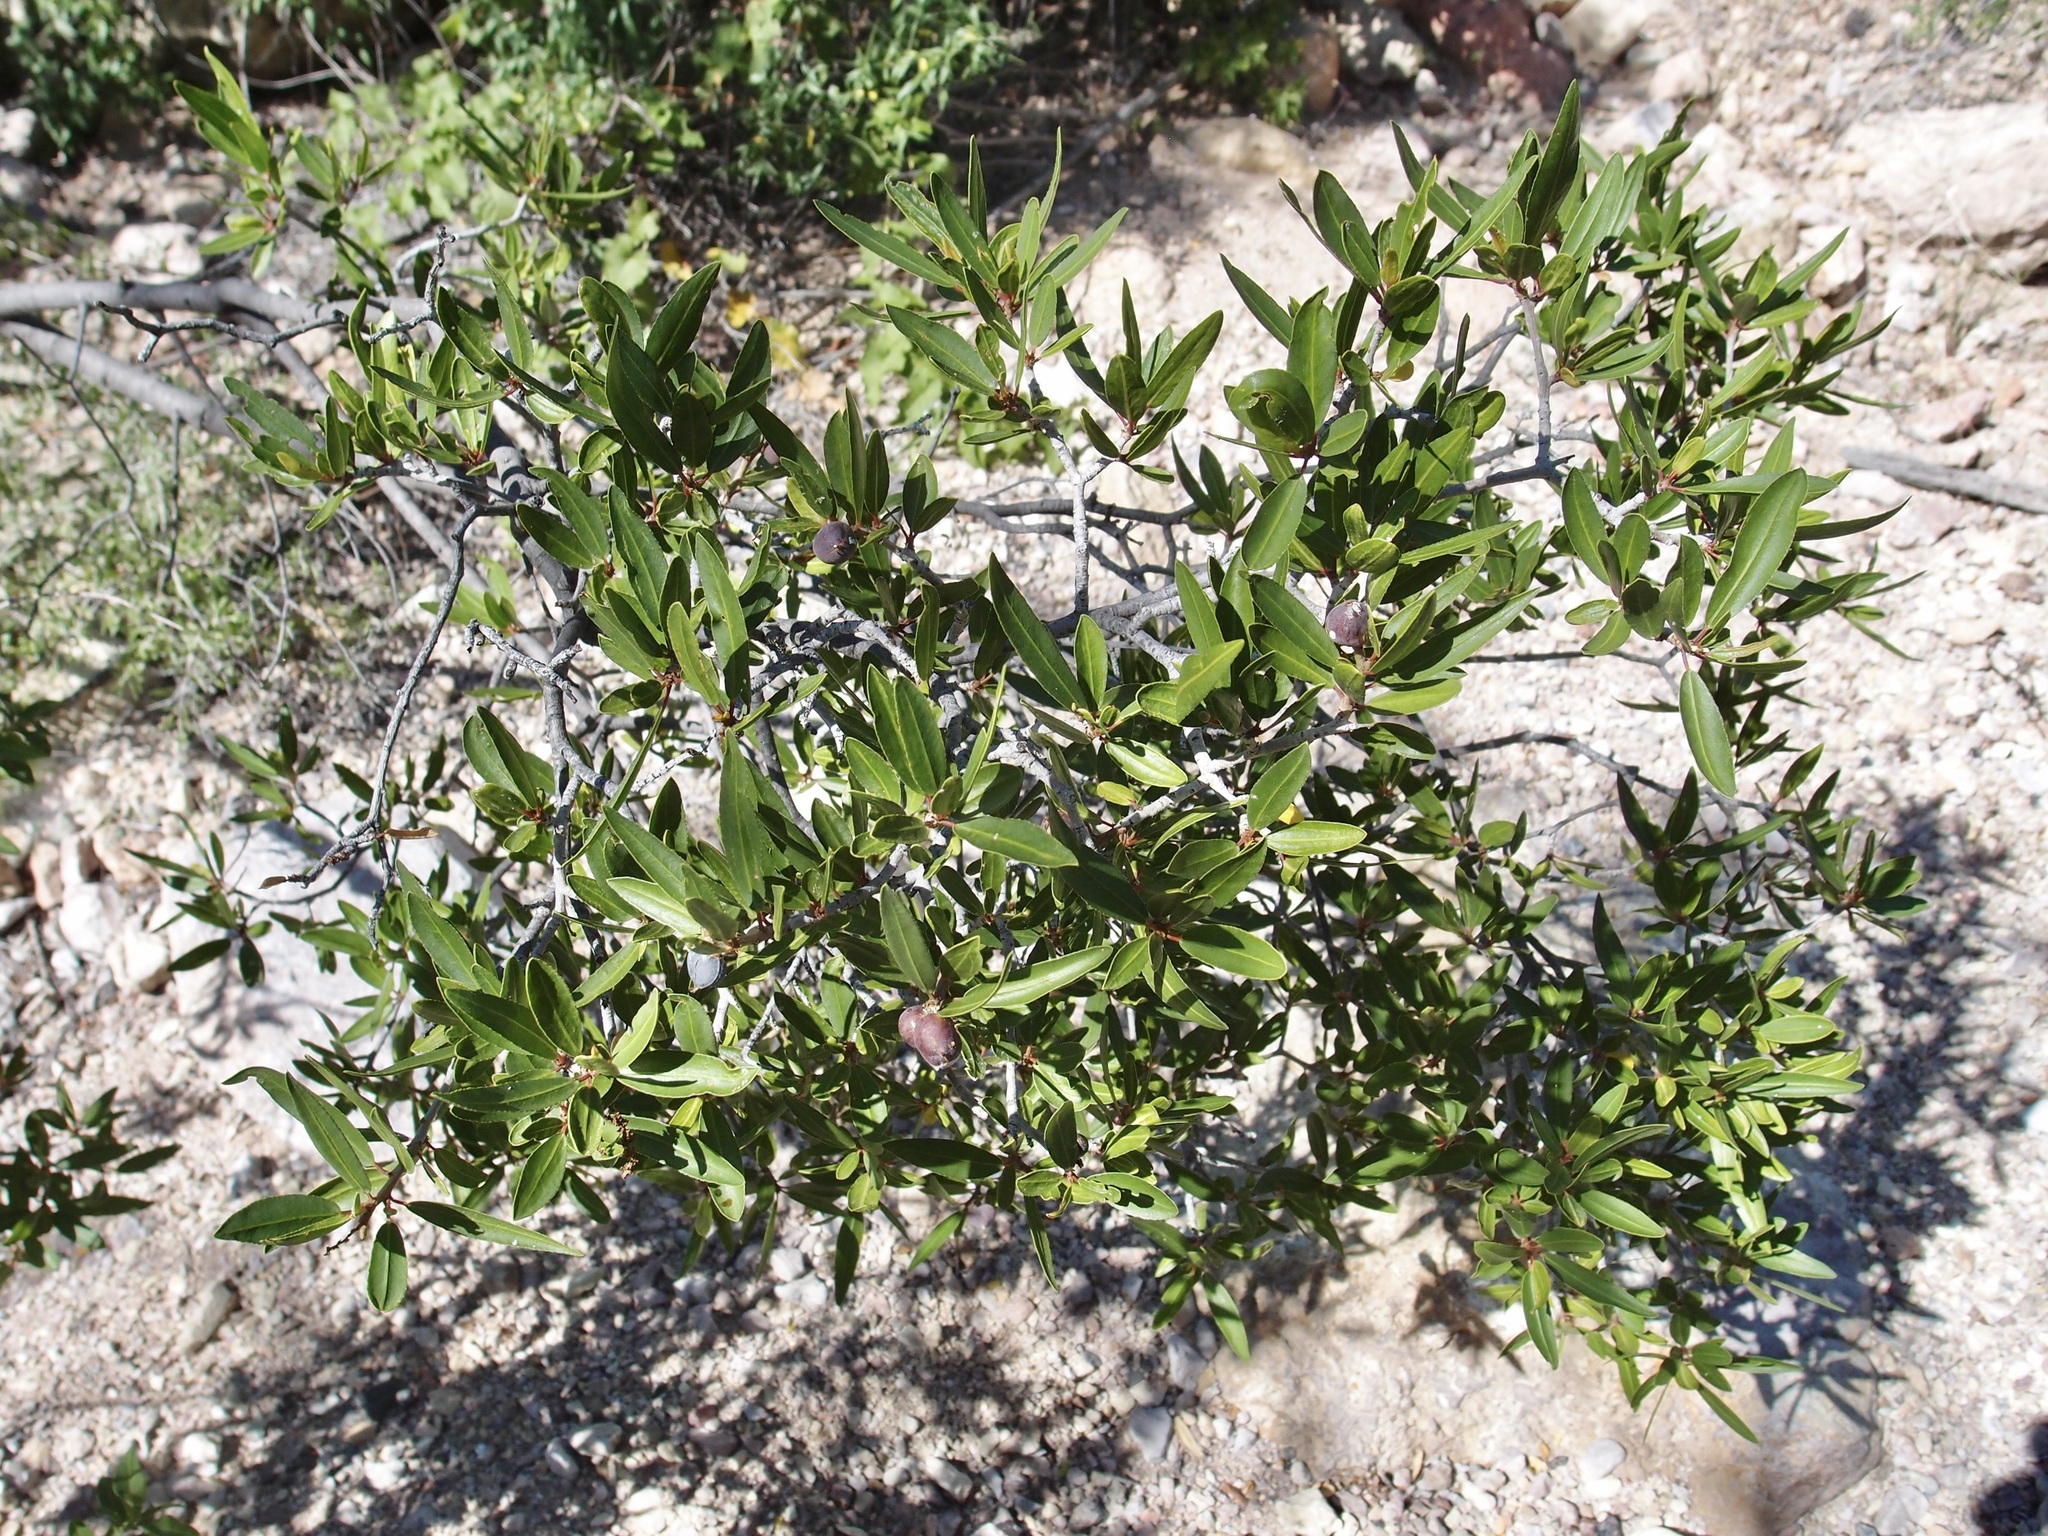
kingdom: Plantae
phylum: Tracheophyta
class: Magnoliopsida
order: Malpighiales
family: Euphorbiaceae
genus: Pleradenophora
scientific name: Pleradenophora bilocularis
